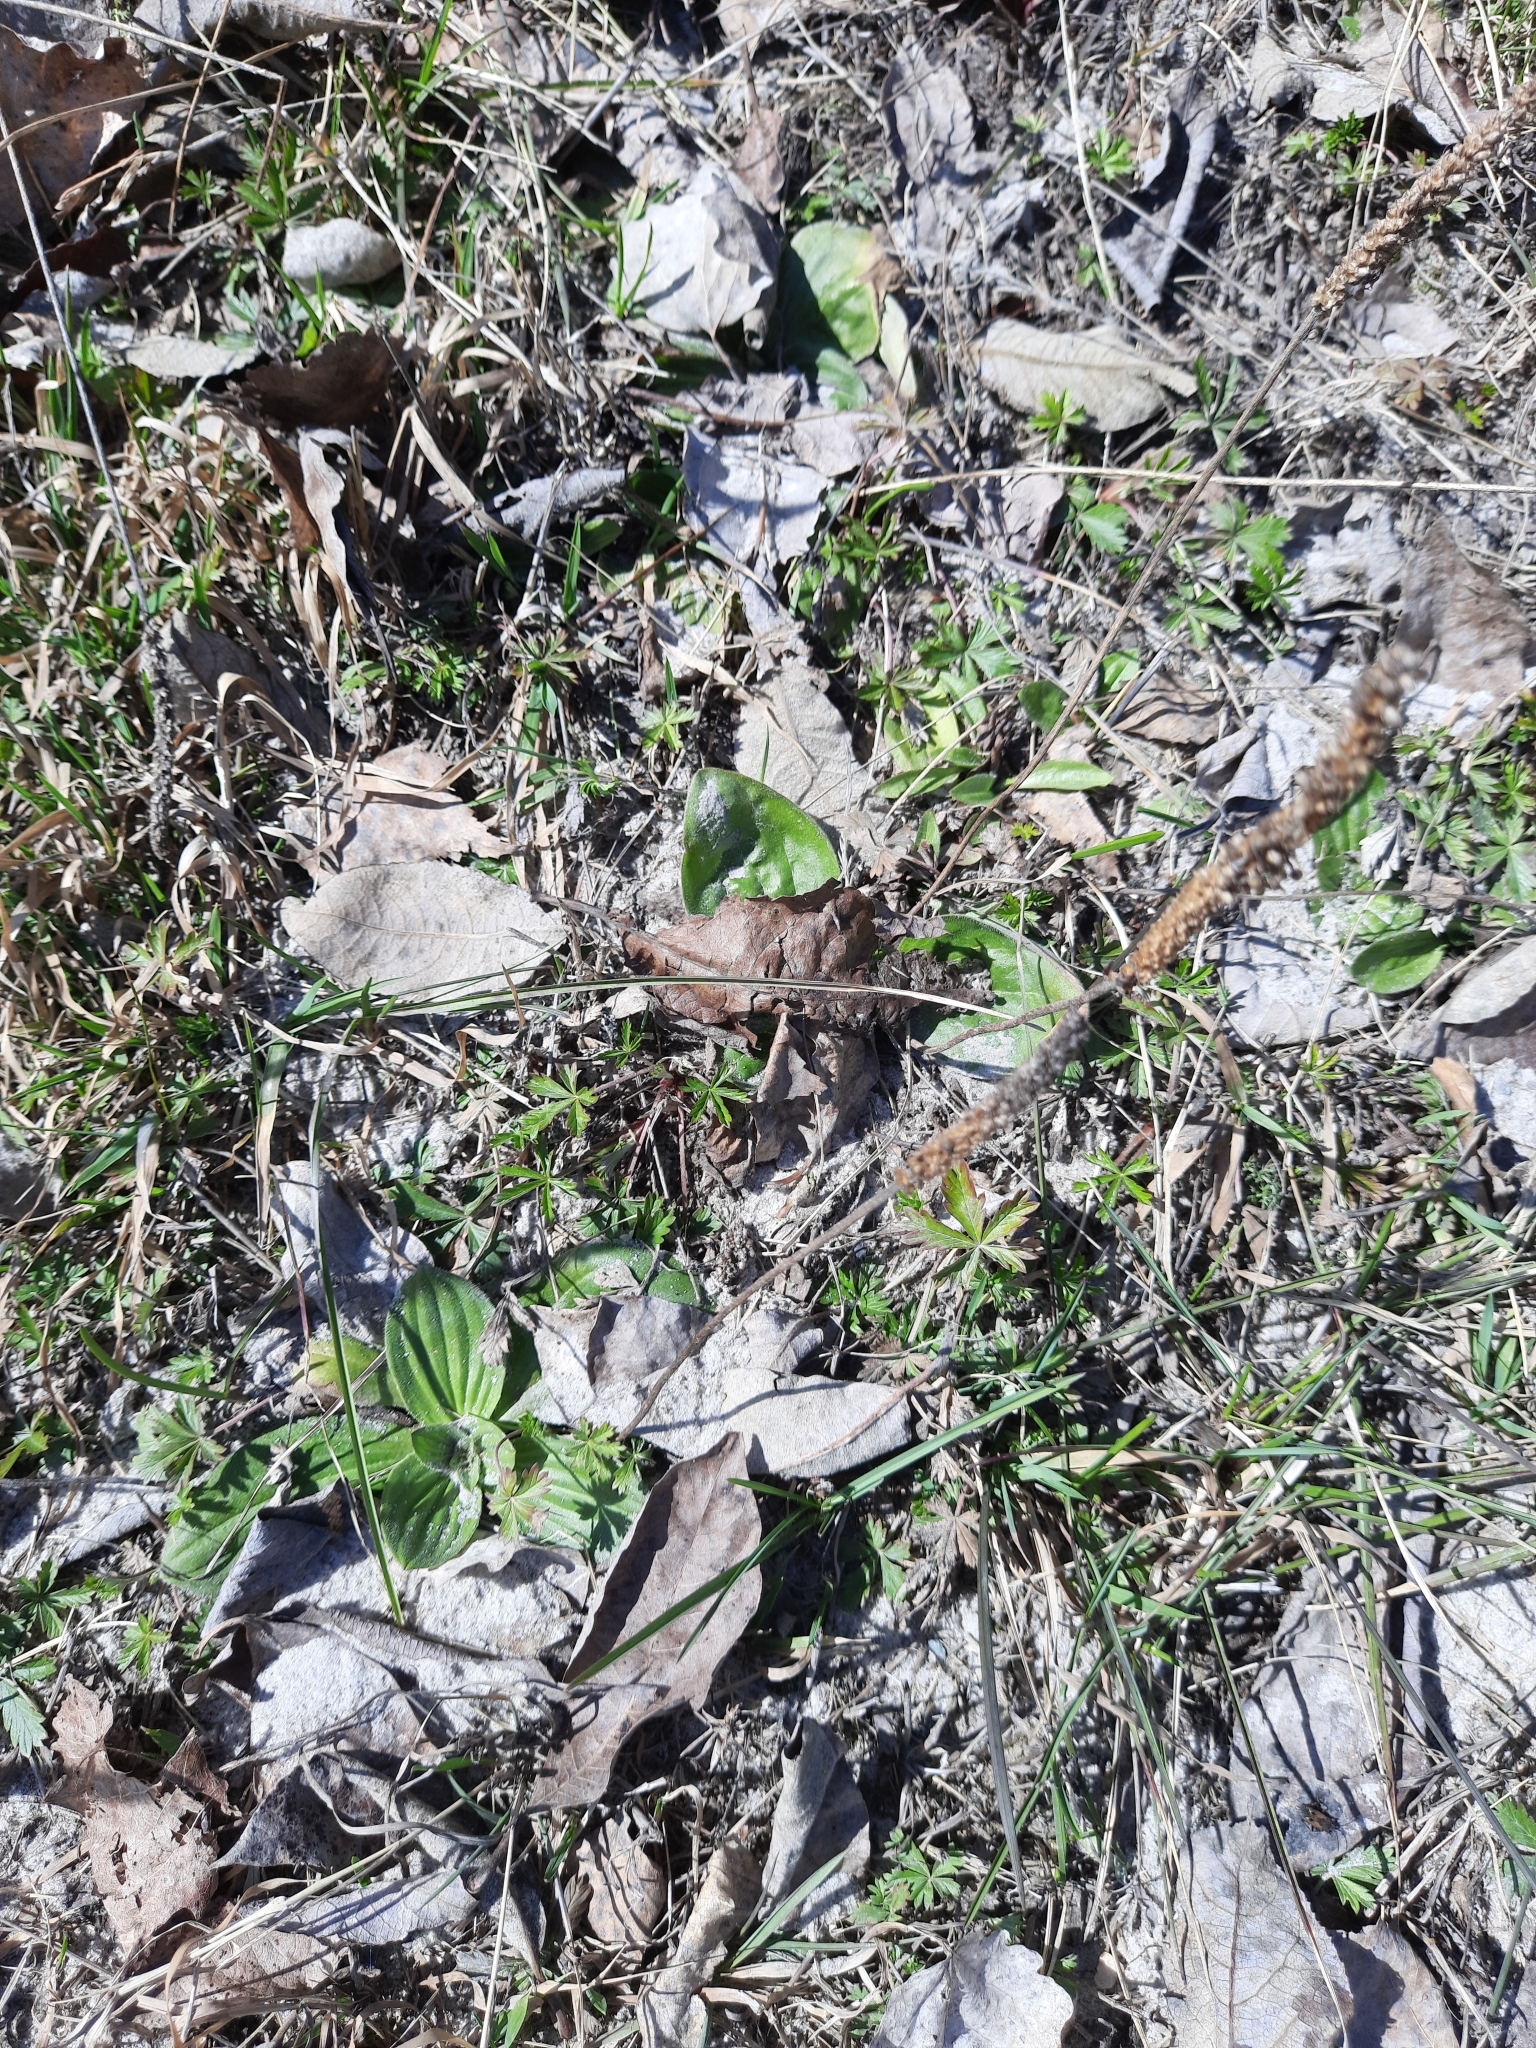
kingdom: Plantae
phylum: Tracheophyta
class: Magnoliopsida
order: Lamiales
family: Plantaginaceae
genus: Plantago
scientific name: Plantago media
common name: Hoary plantain
